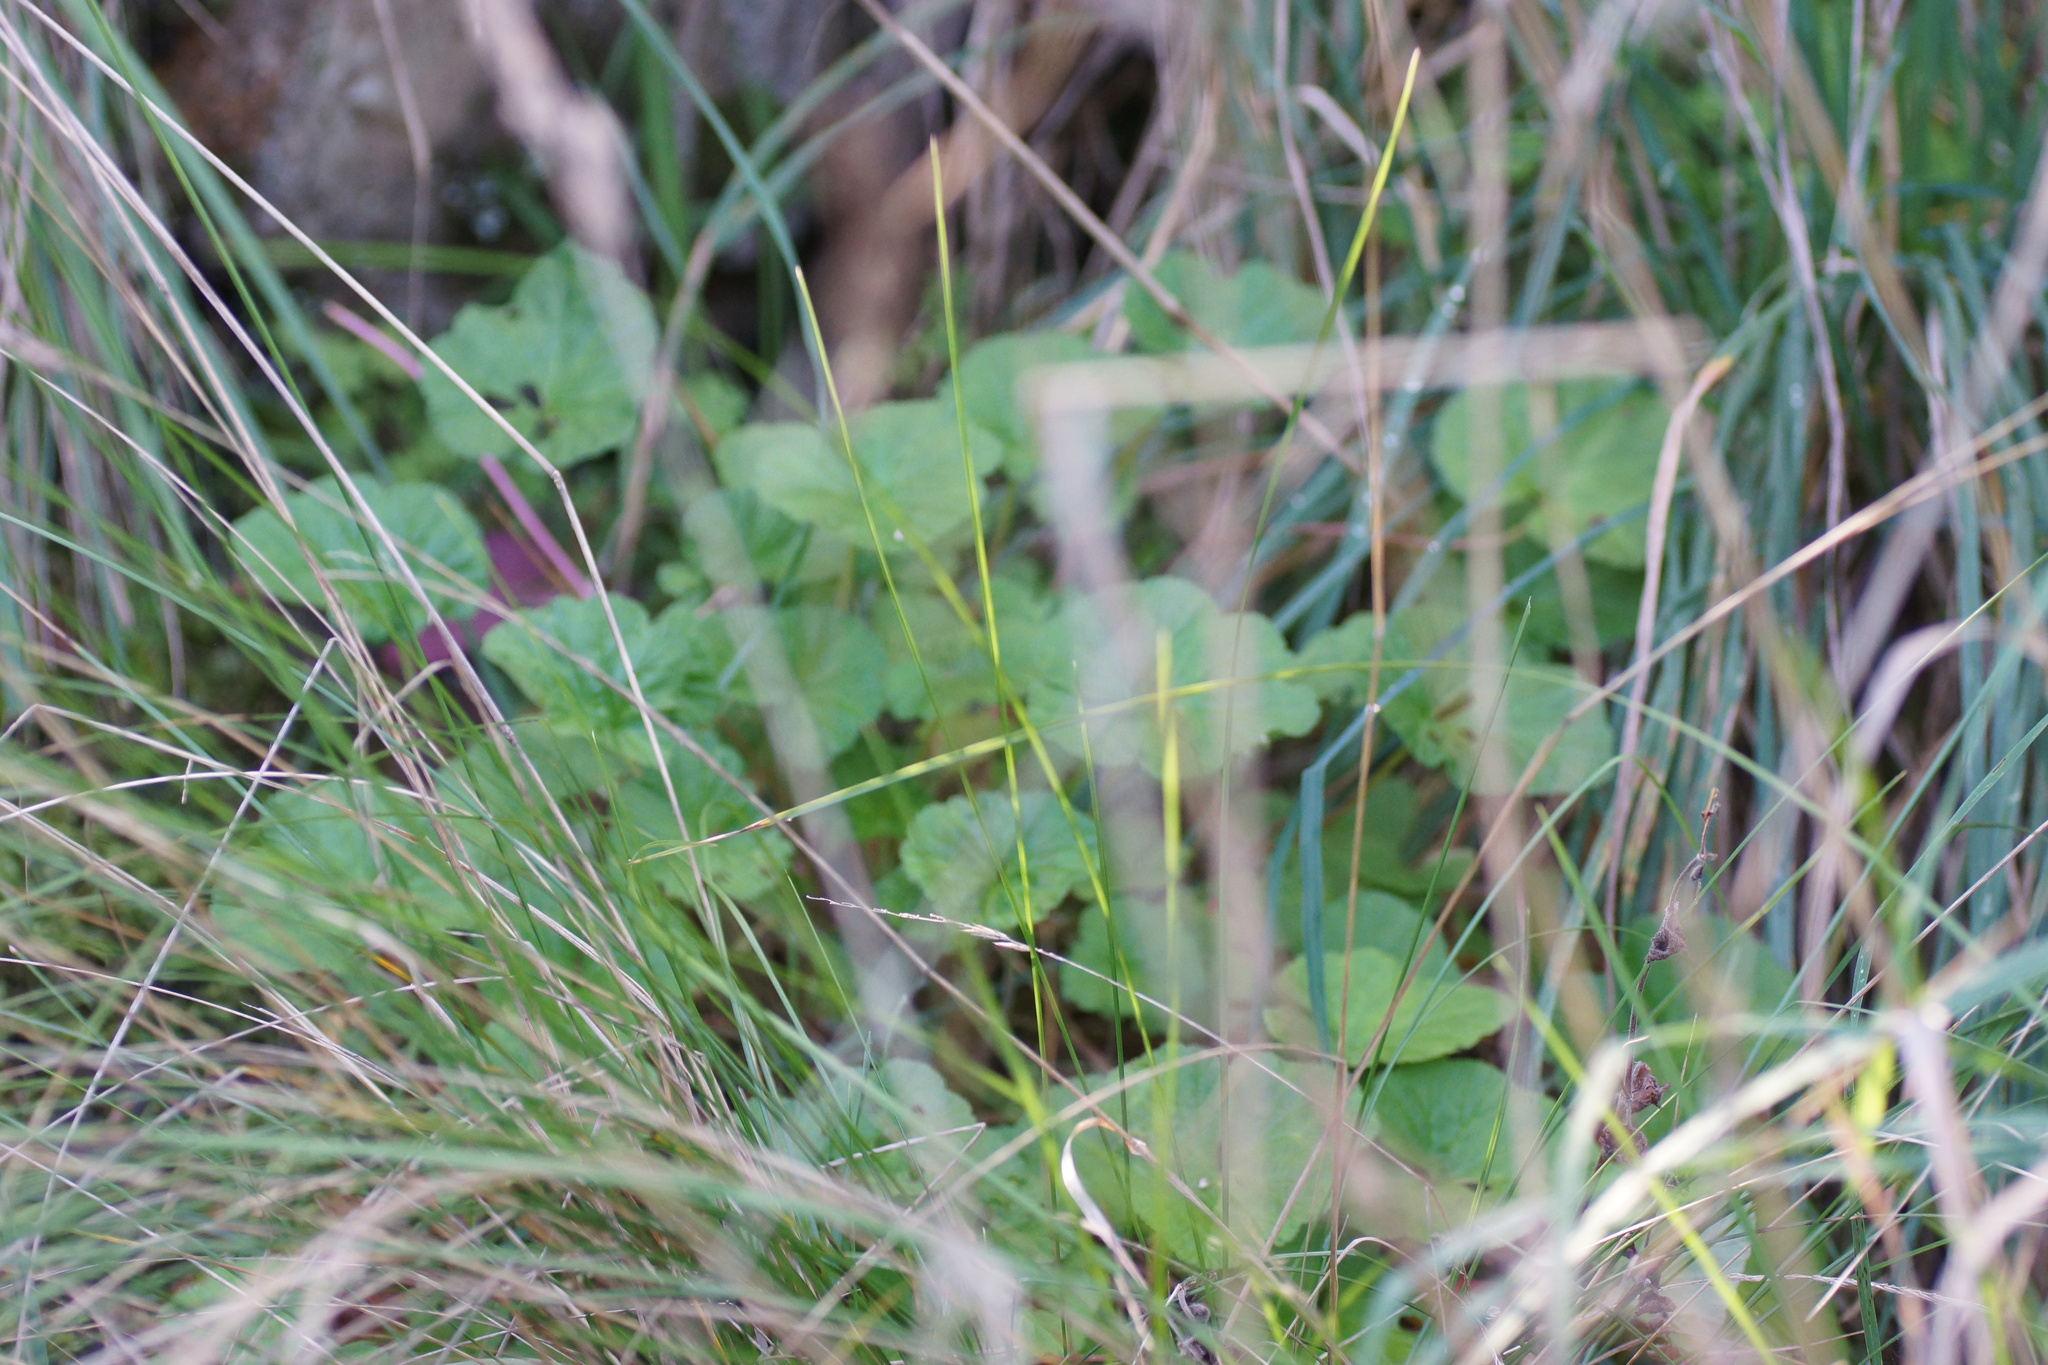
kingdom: Plantae
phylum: Tracheophyta
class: Magnoliopsida
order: Geraniales
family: Geraniaceae
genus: Pelargonium
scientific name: Pelargonium australe
